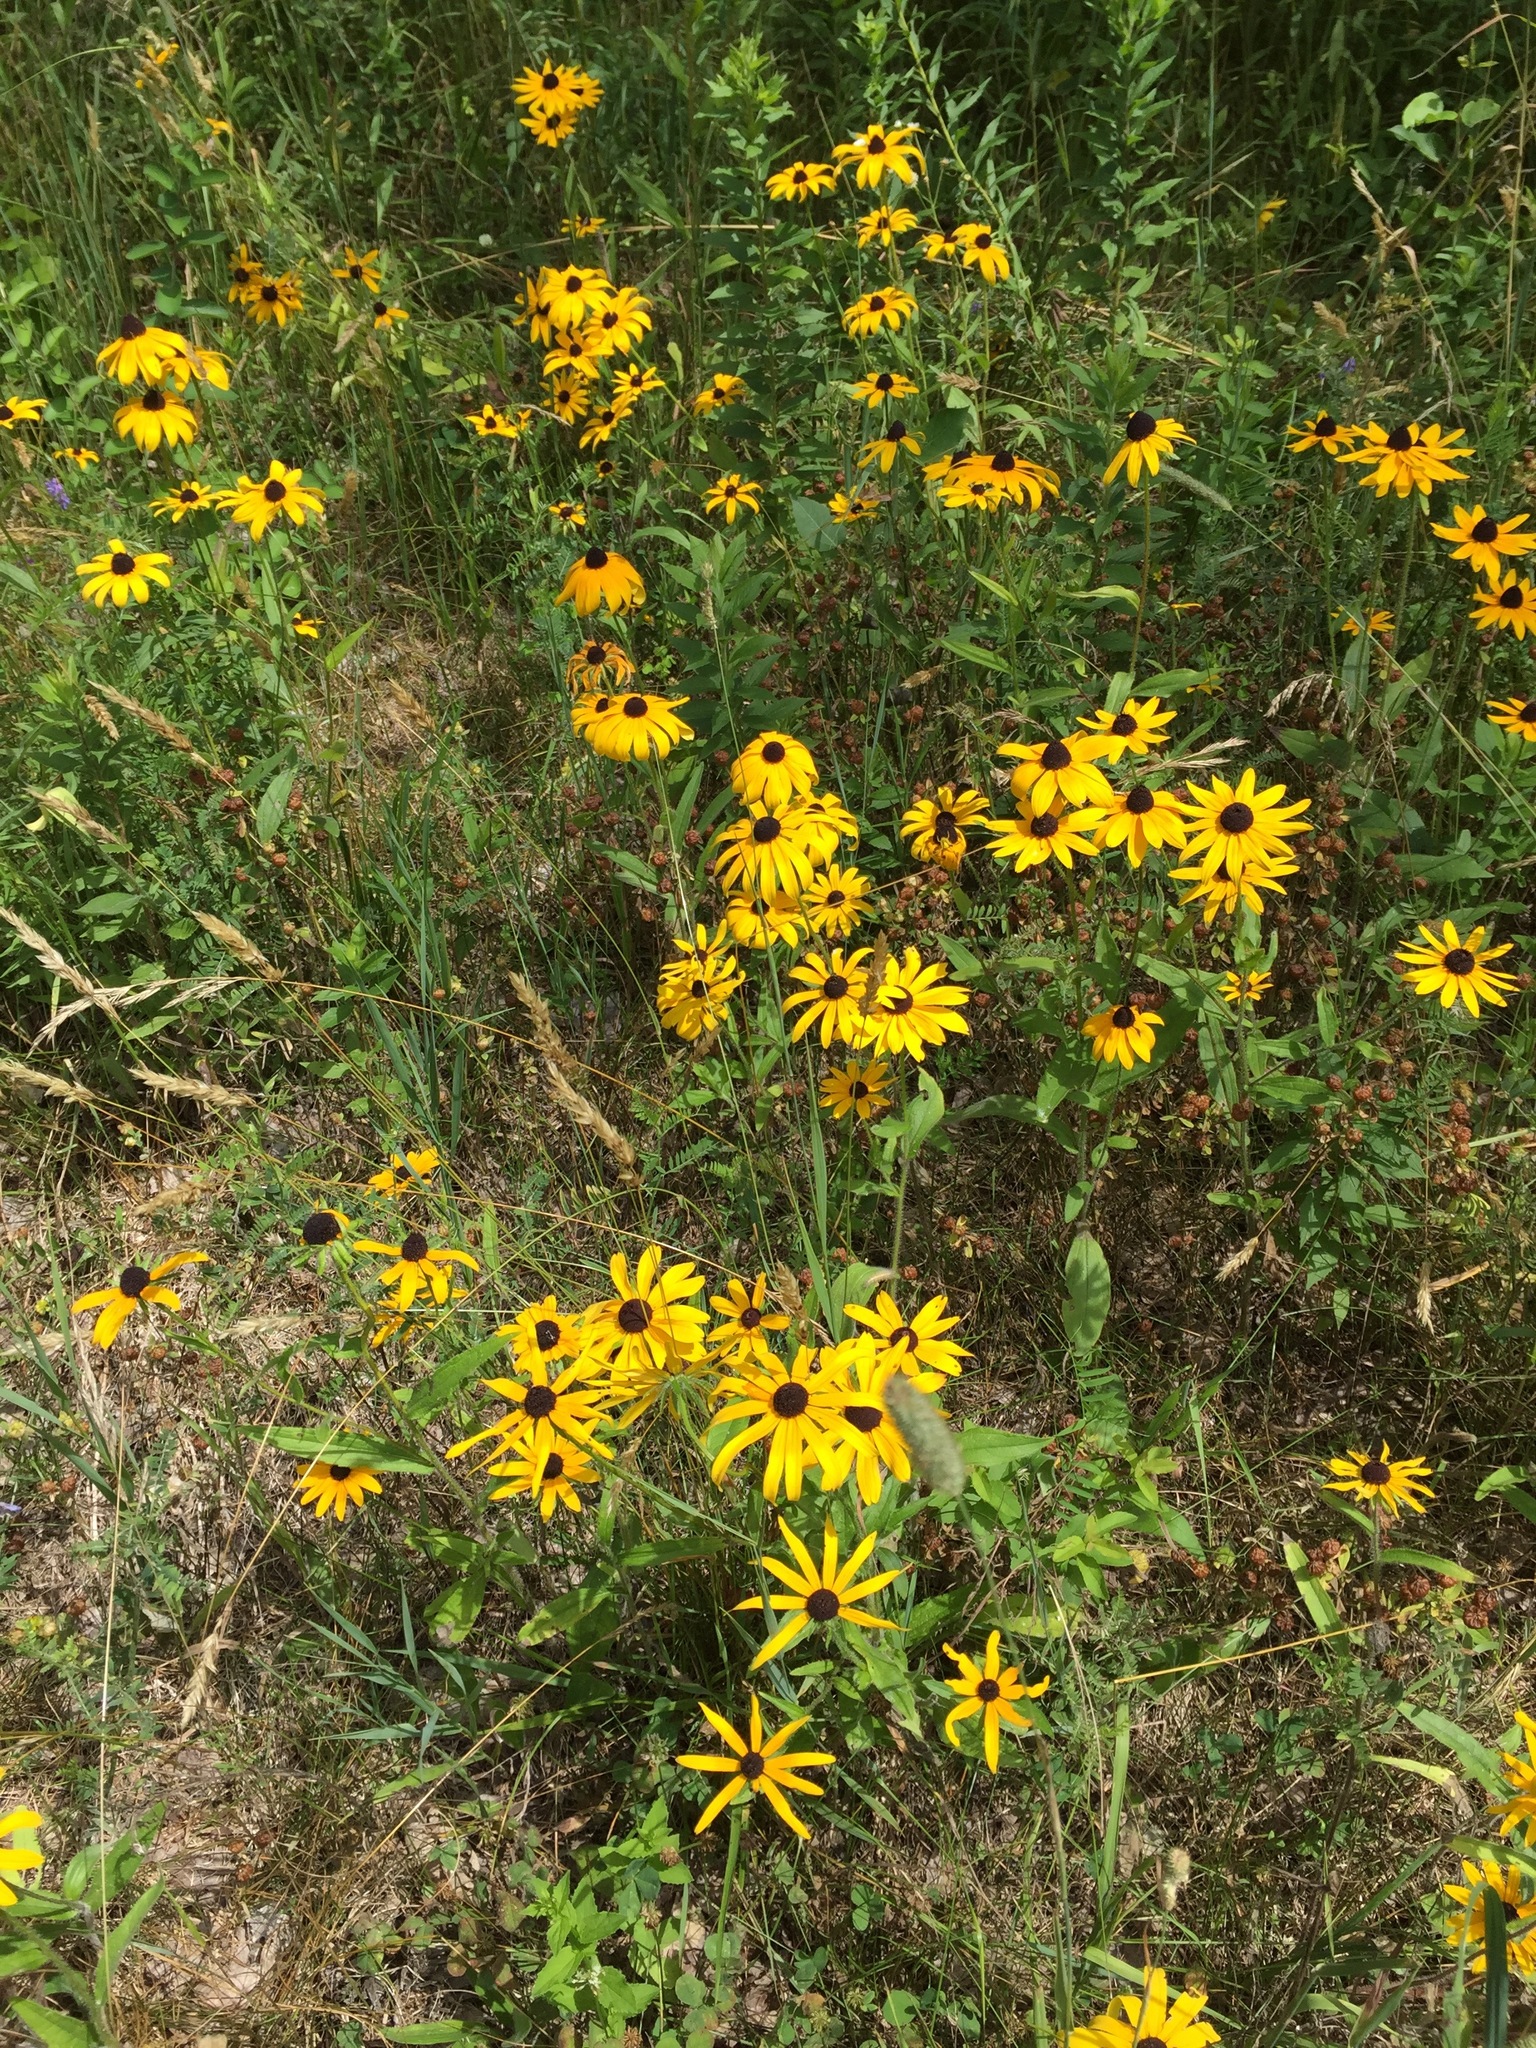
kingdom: Plantae
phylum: Tracheophyta
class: Magnoliopsida
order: Asterales
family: Asteraceae
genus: Rudbeckia
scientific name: Rudbeckia hirta
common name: Black-eyed-susan
